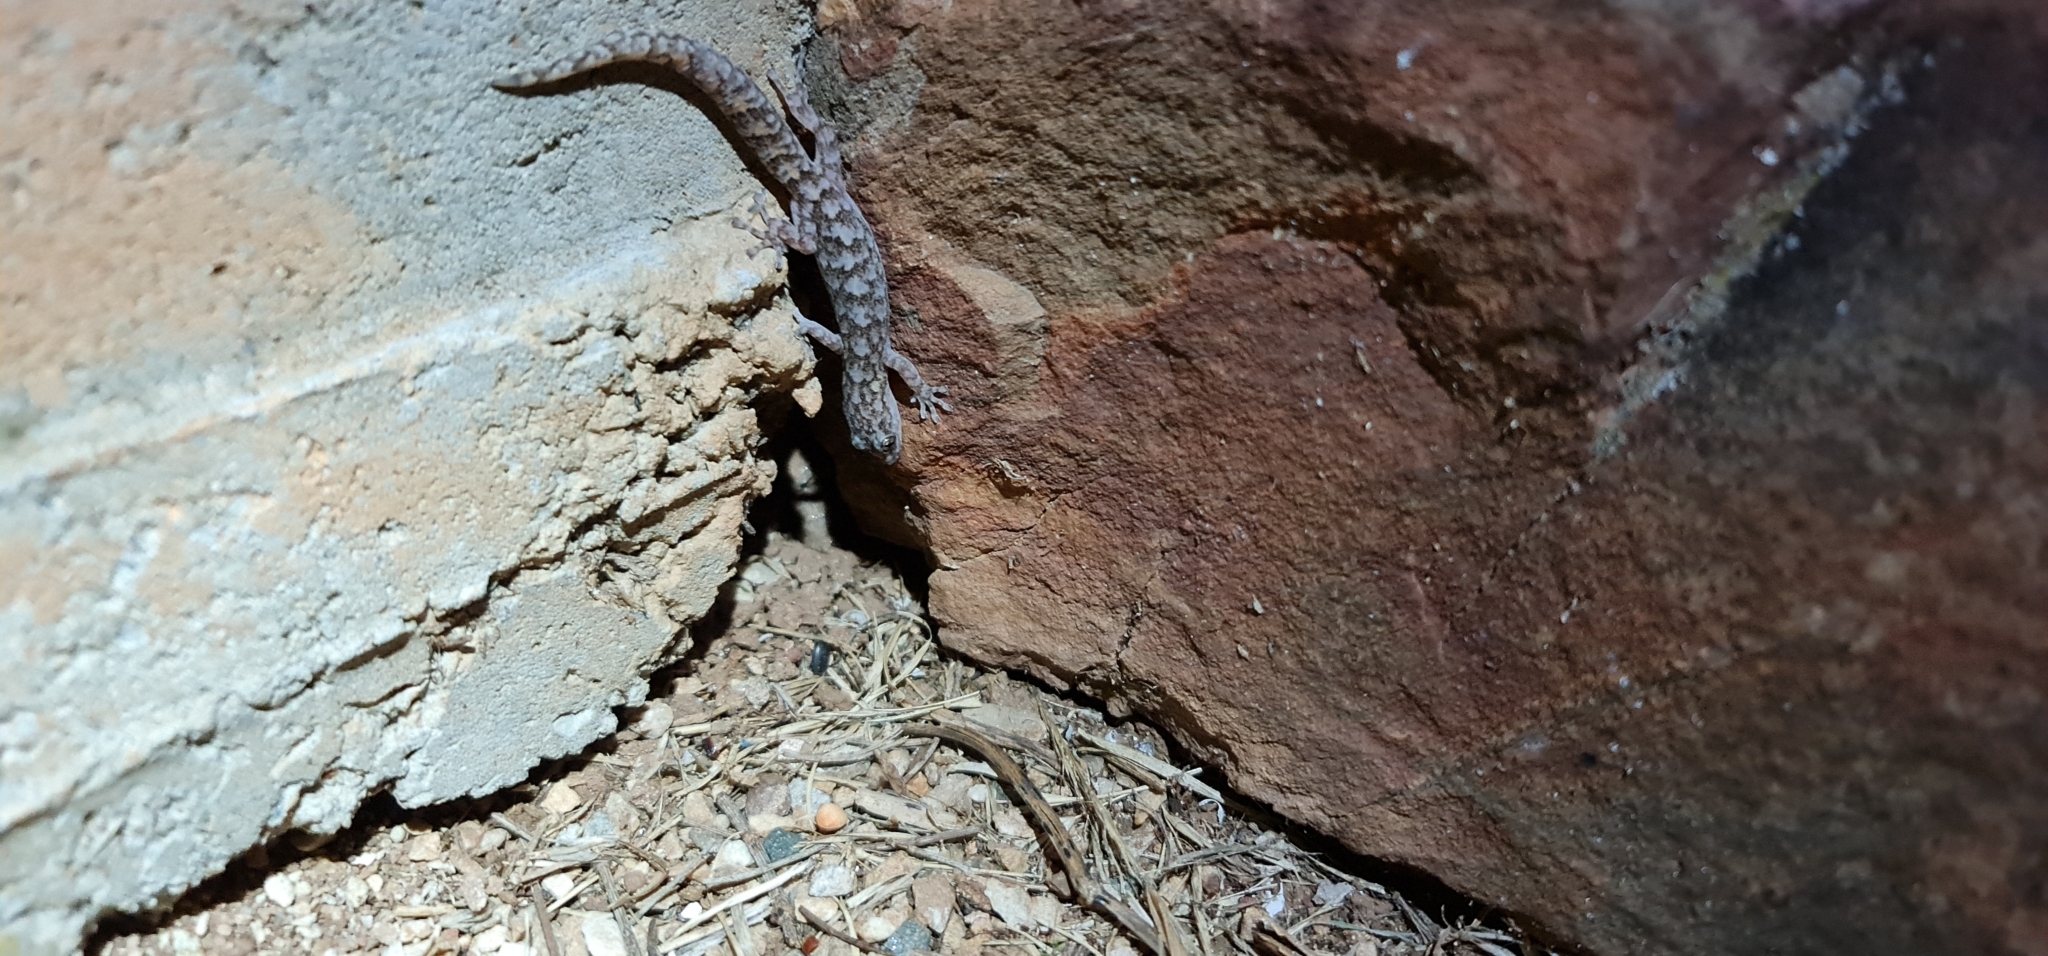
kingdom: Animalia
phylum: Chordata
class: Squamata
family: Gekkonidae
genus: Christinus
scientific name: Christinus marmoratus
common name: Marbled gecko
